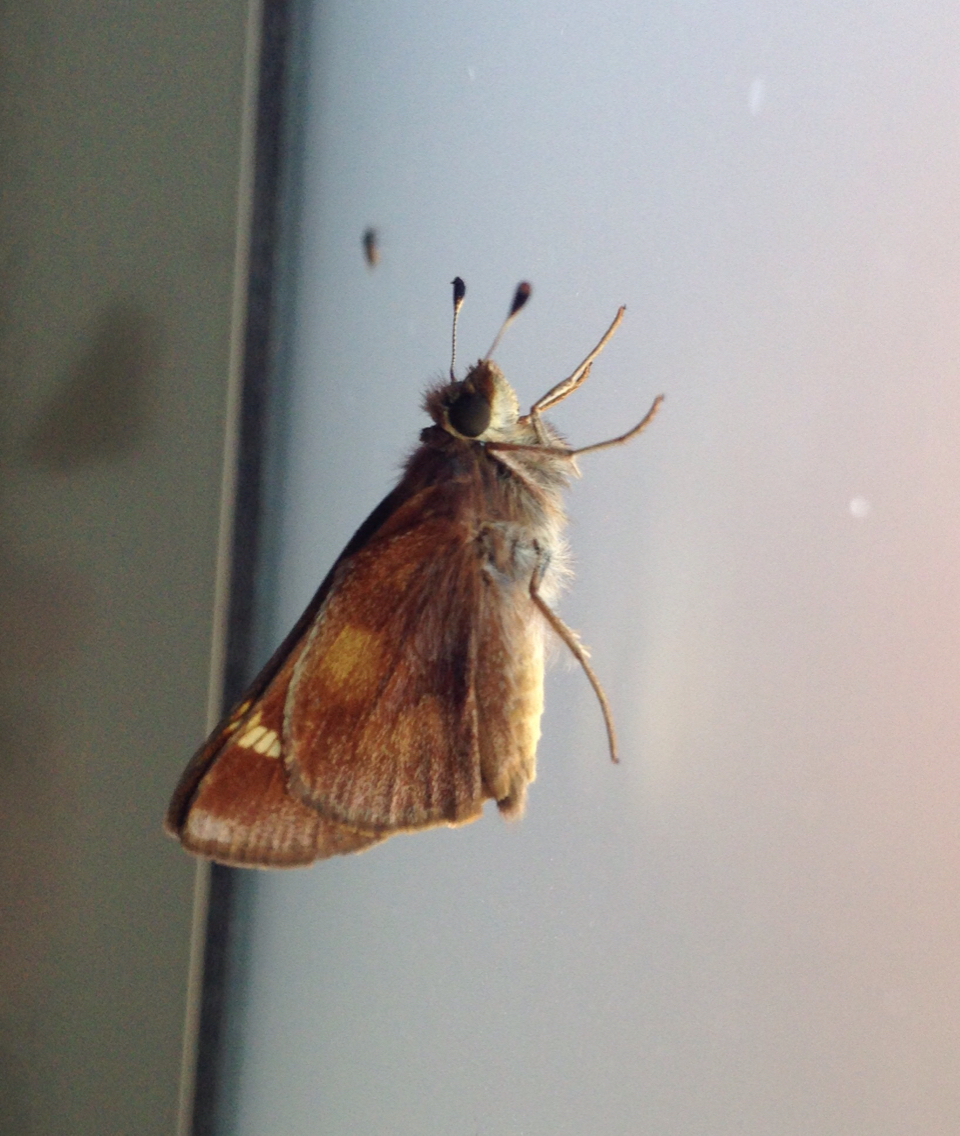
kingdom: Animalia
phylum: Arthropoda
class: Insecta
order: Lepidoptera
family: Hesperiidae
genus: Lon
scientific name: Lon melane
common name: Umber skipper
